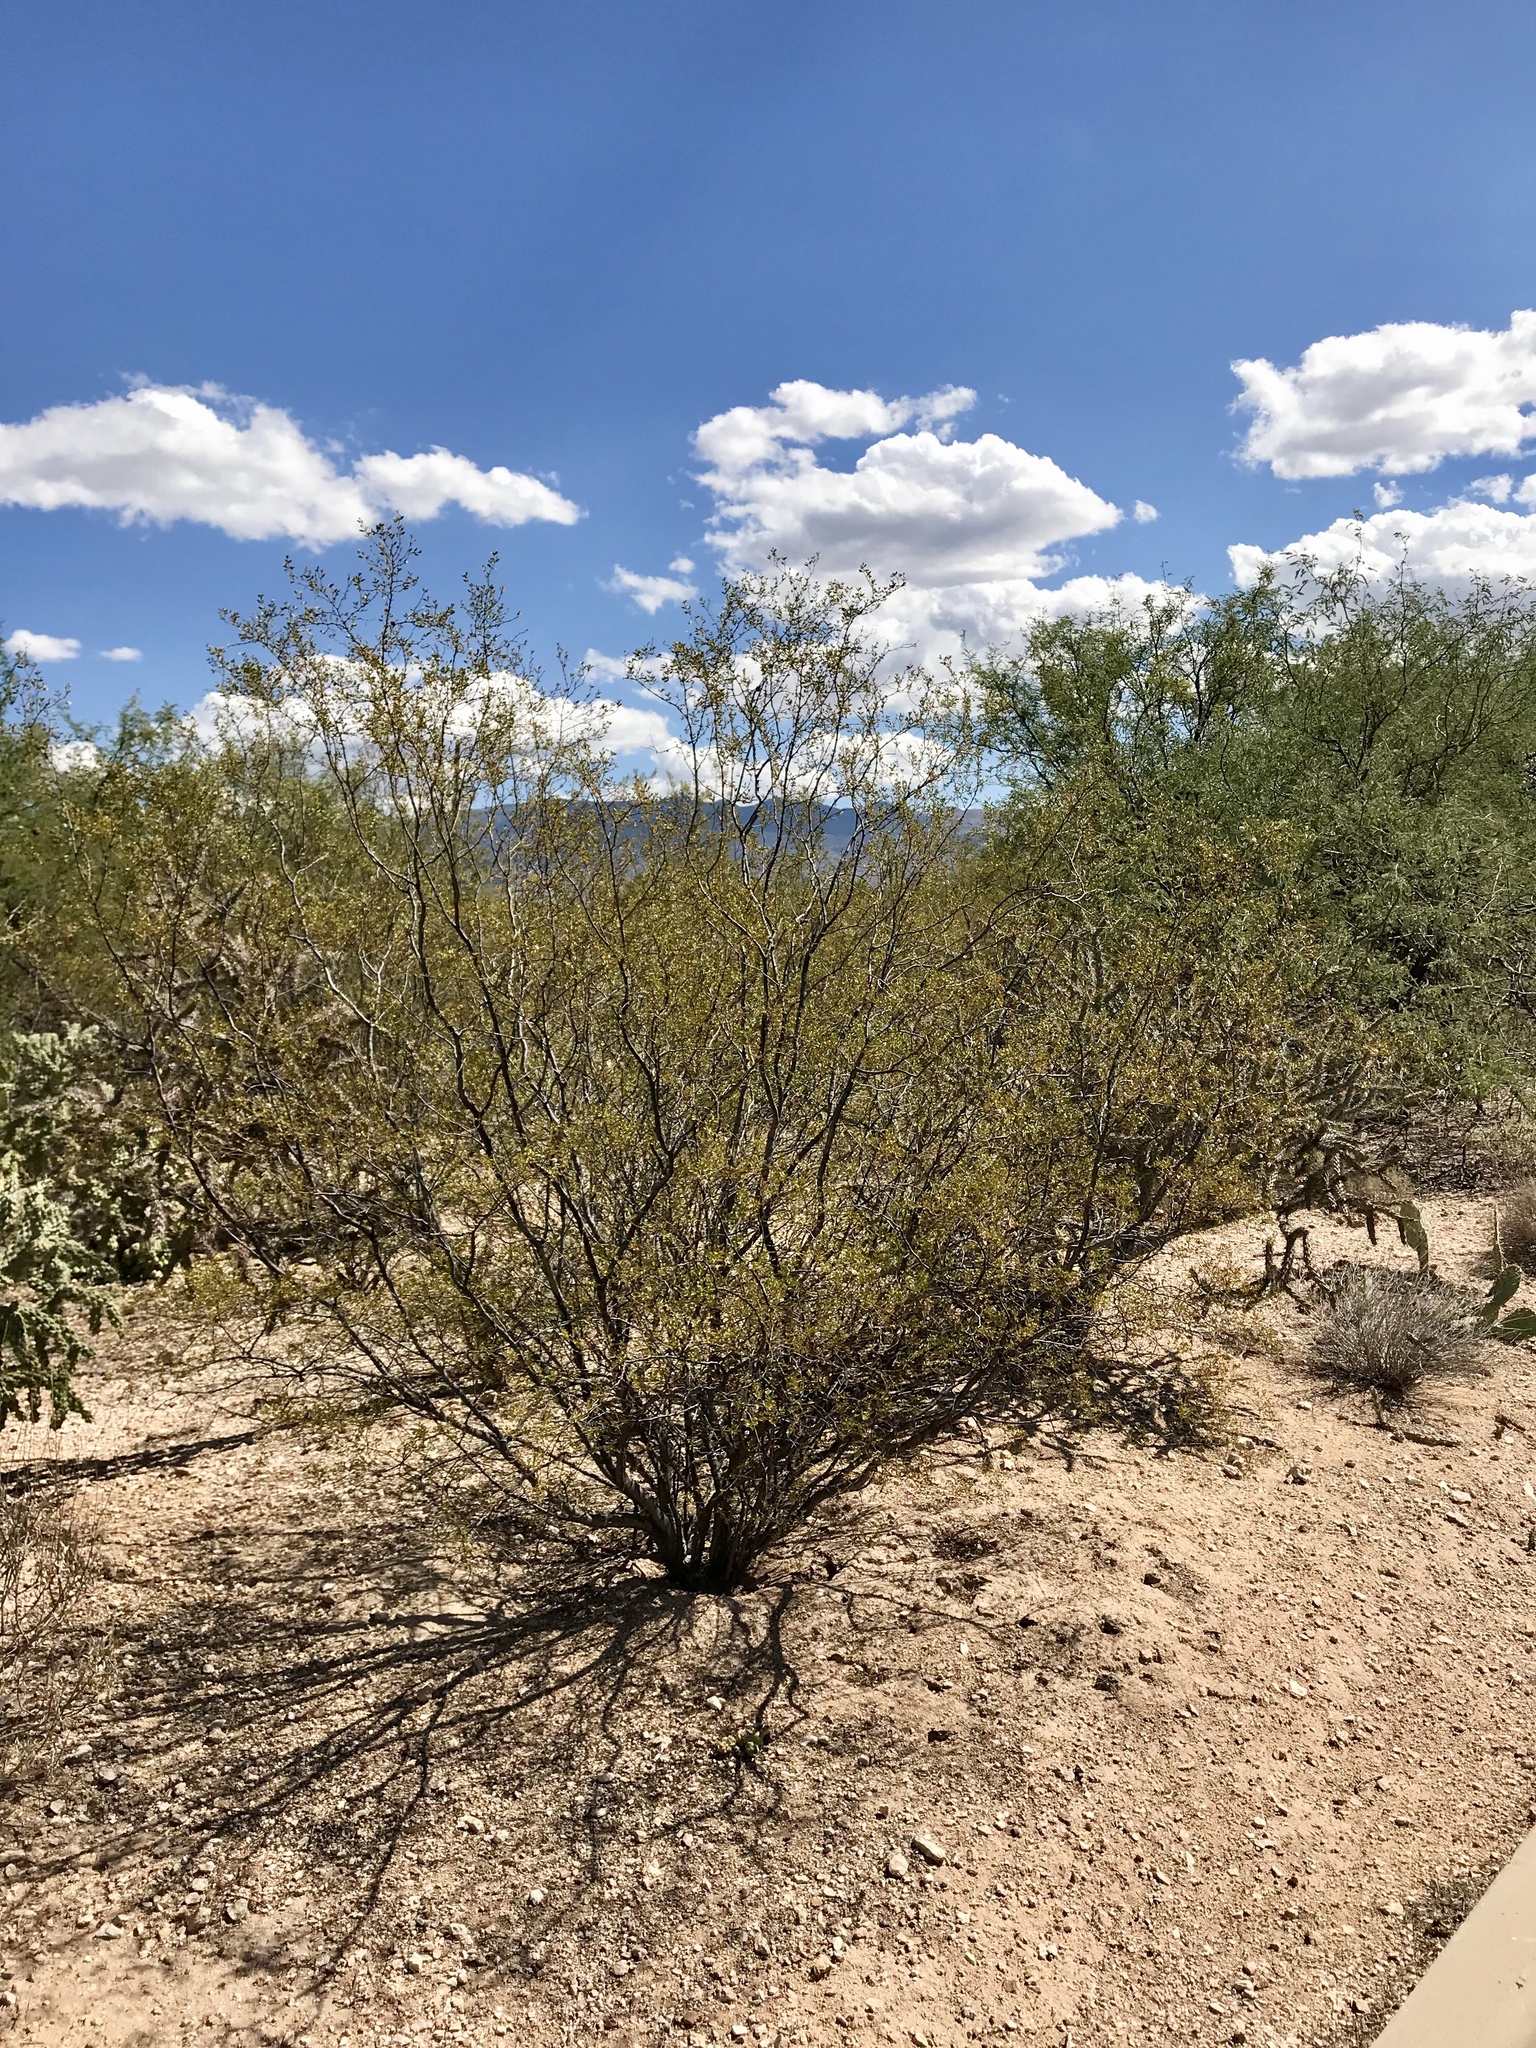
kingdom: Plantae
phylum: Tracheophyta
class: Magnoliopsida
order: Zygophyllales
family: Zygophyllaceae
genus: Larrea
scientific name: Larrea tridentata
